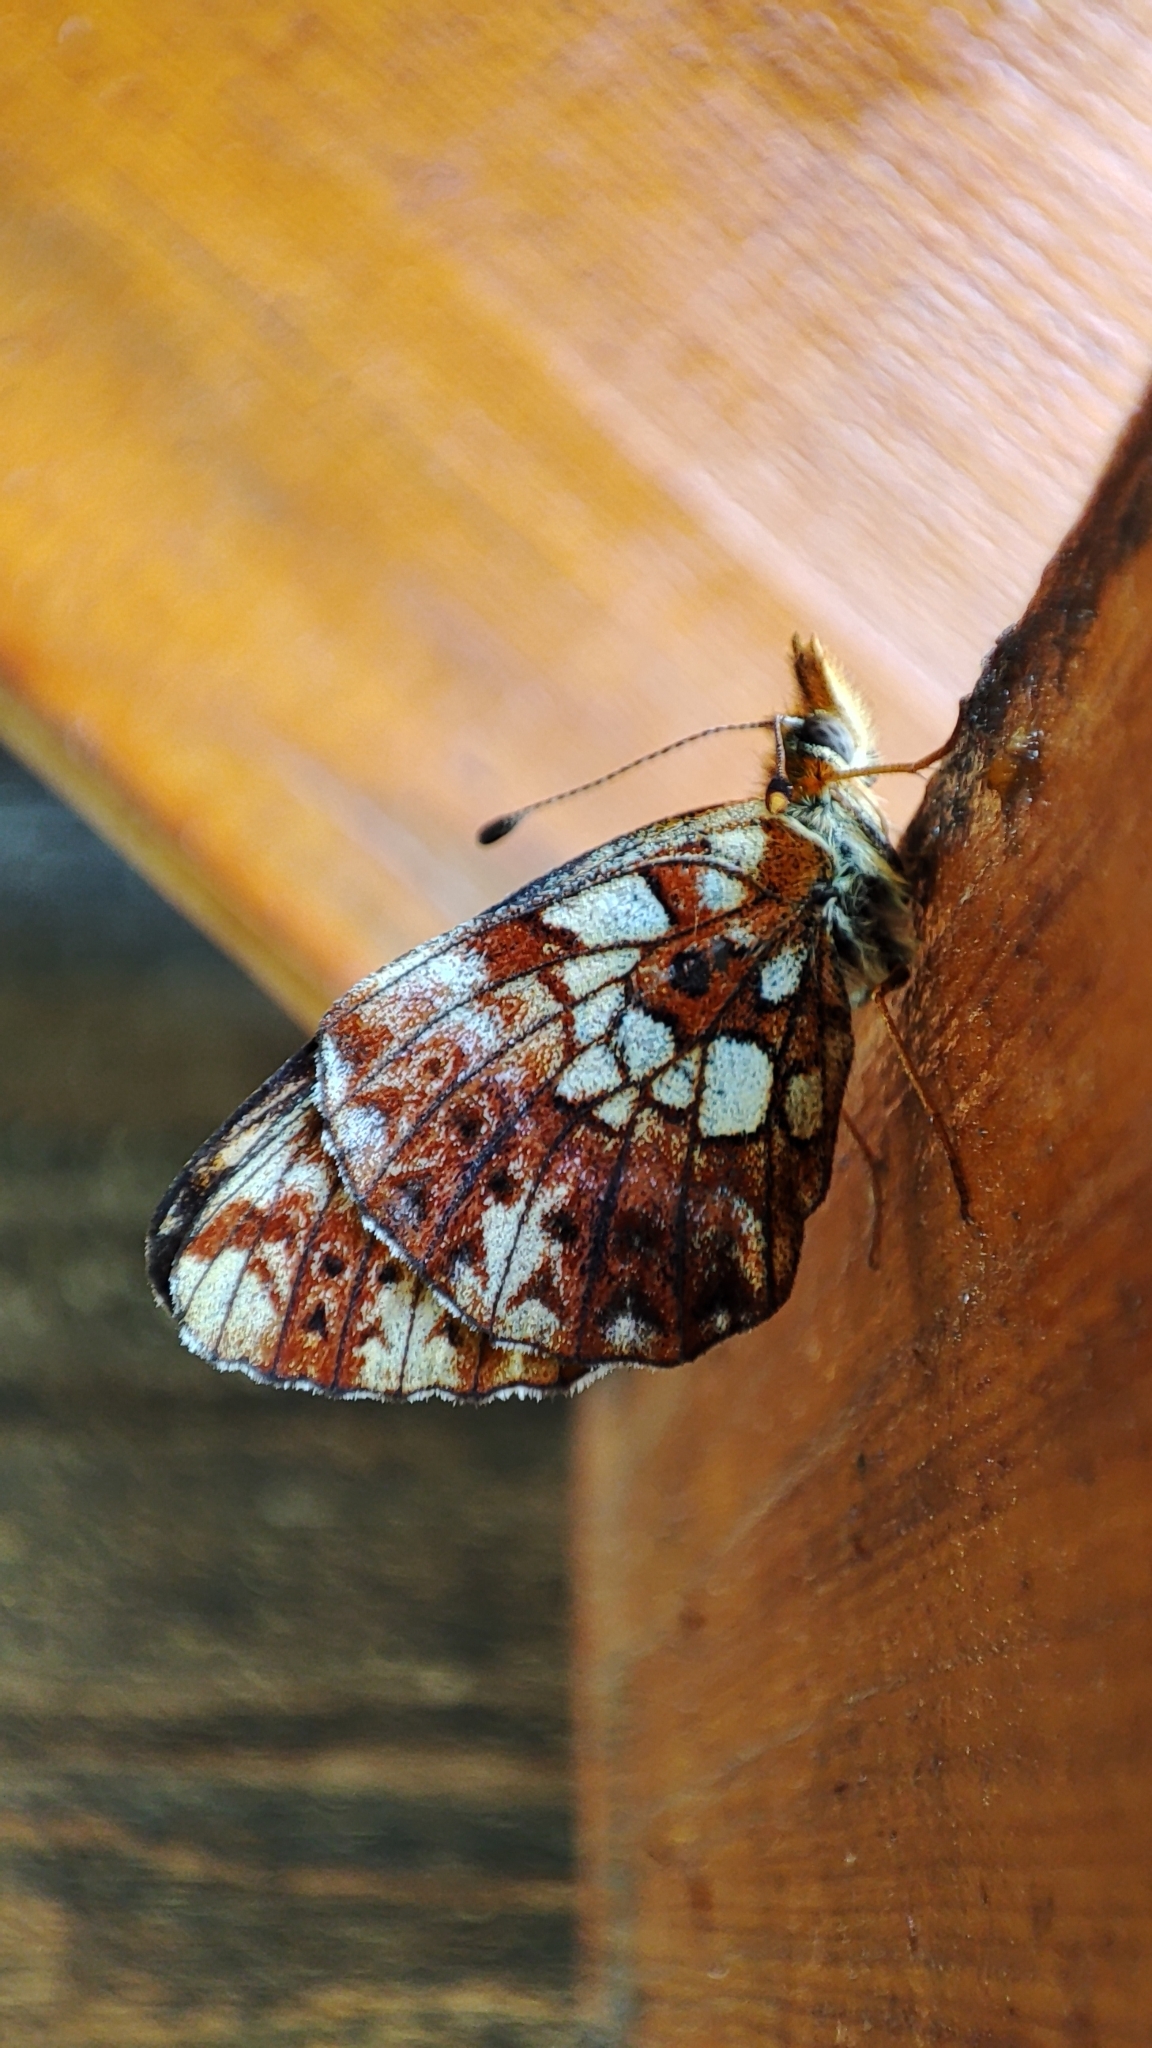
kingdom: Animalia
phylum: Arthropoda
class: Insecta
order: Lepidoptera
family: Nymphalidae
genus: Clossiana
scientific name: Clossiana selenis
